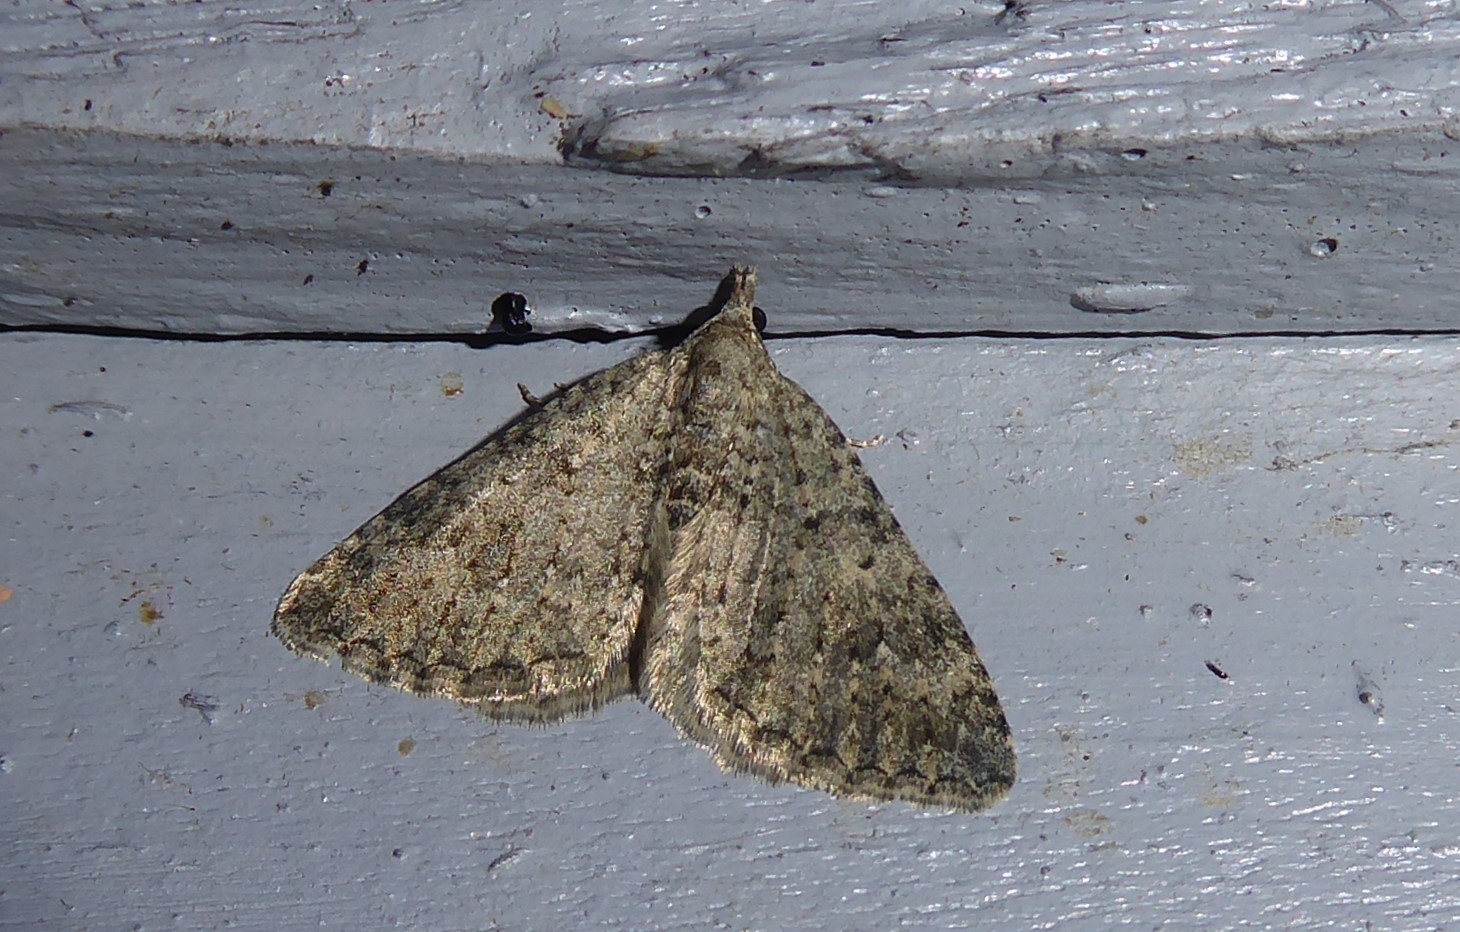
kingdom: Animalia
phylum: Arthropoda
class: Insecta
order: Lepidoptera
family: Geometridae
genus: Helastia
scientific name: Helastia corcularia
